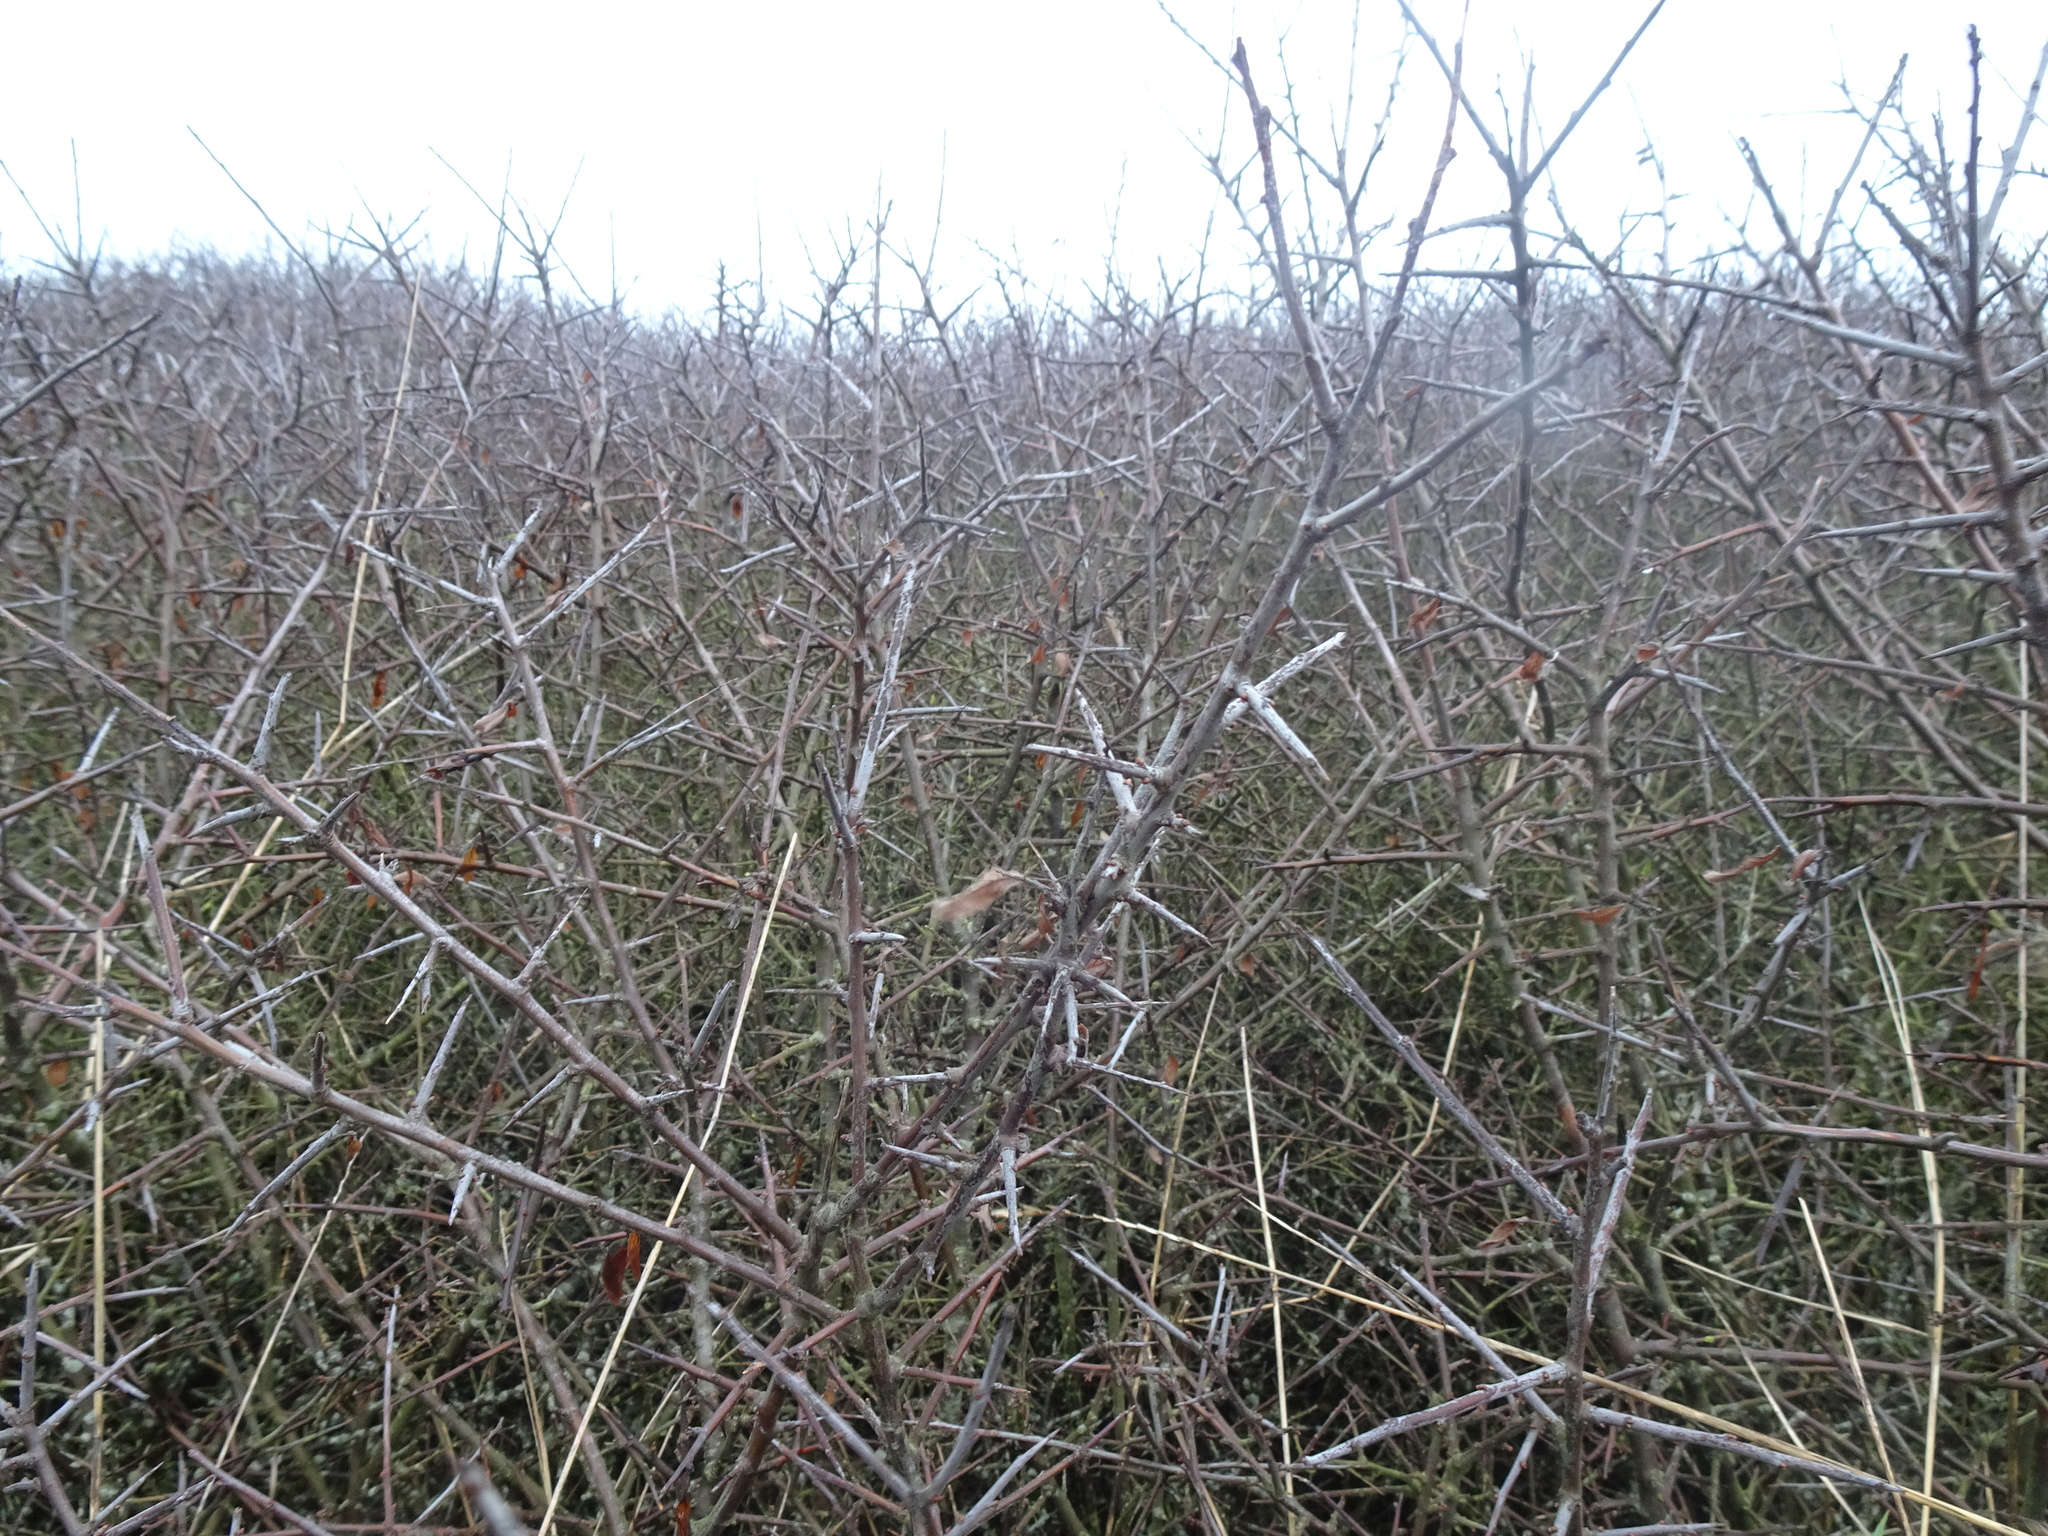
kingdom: Plantae
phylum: Tracheophyta
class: Magnoliopsida
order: Rosales
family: Rosaceae
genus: Prunus
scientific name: Prunus spinosa
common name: Blackthorn
